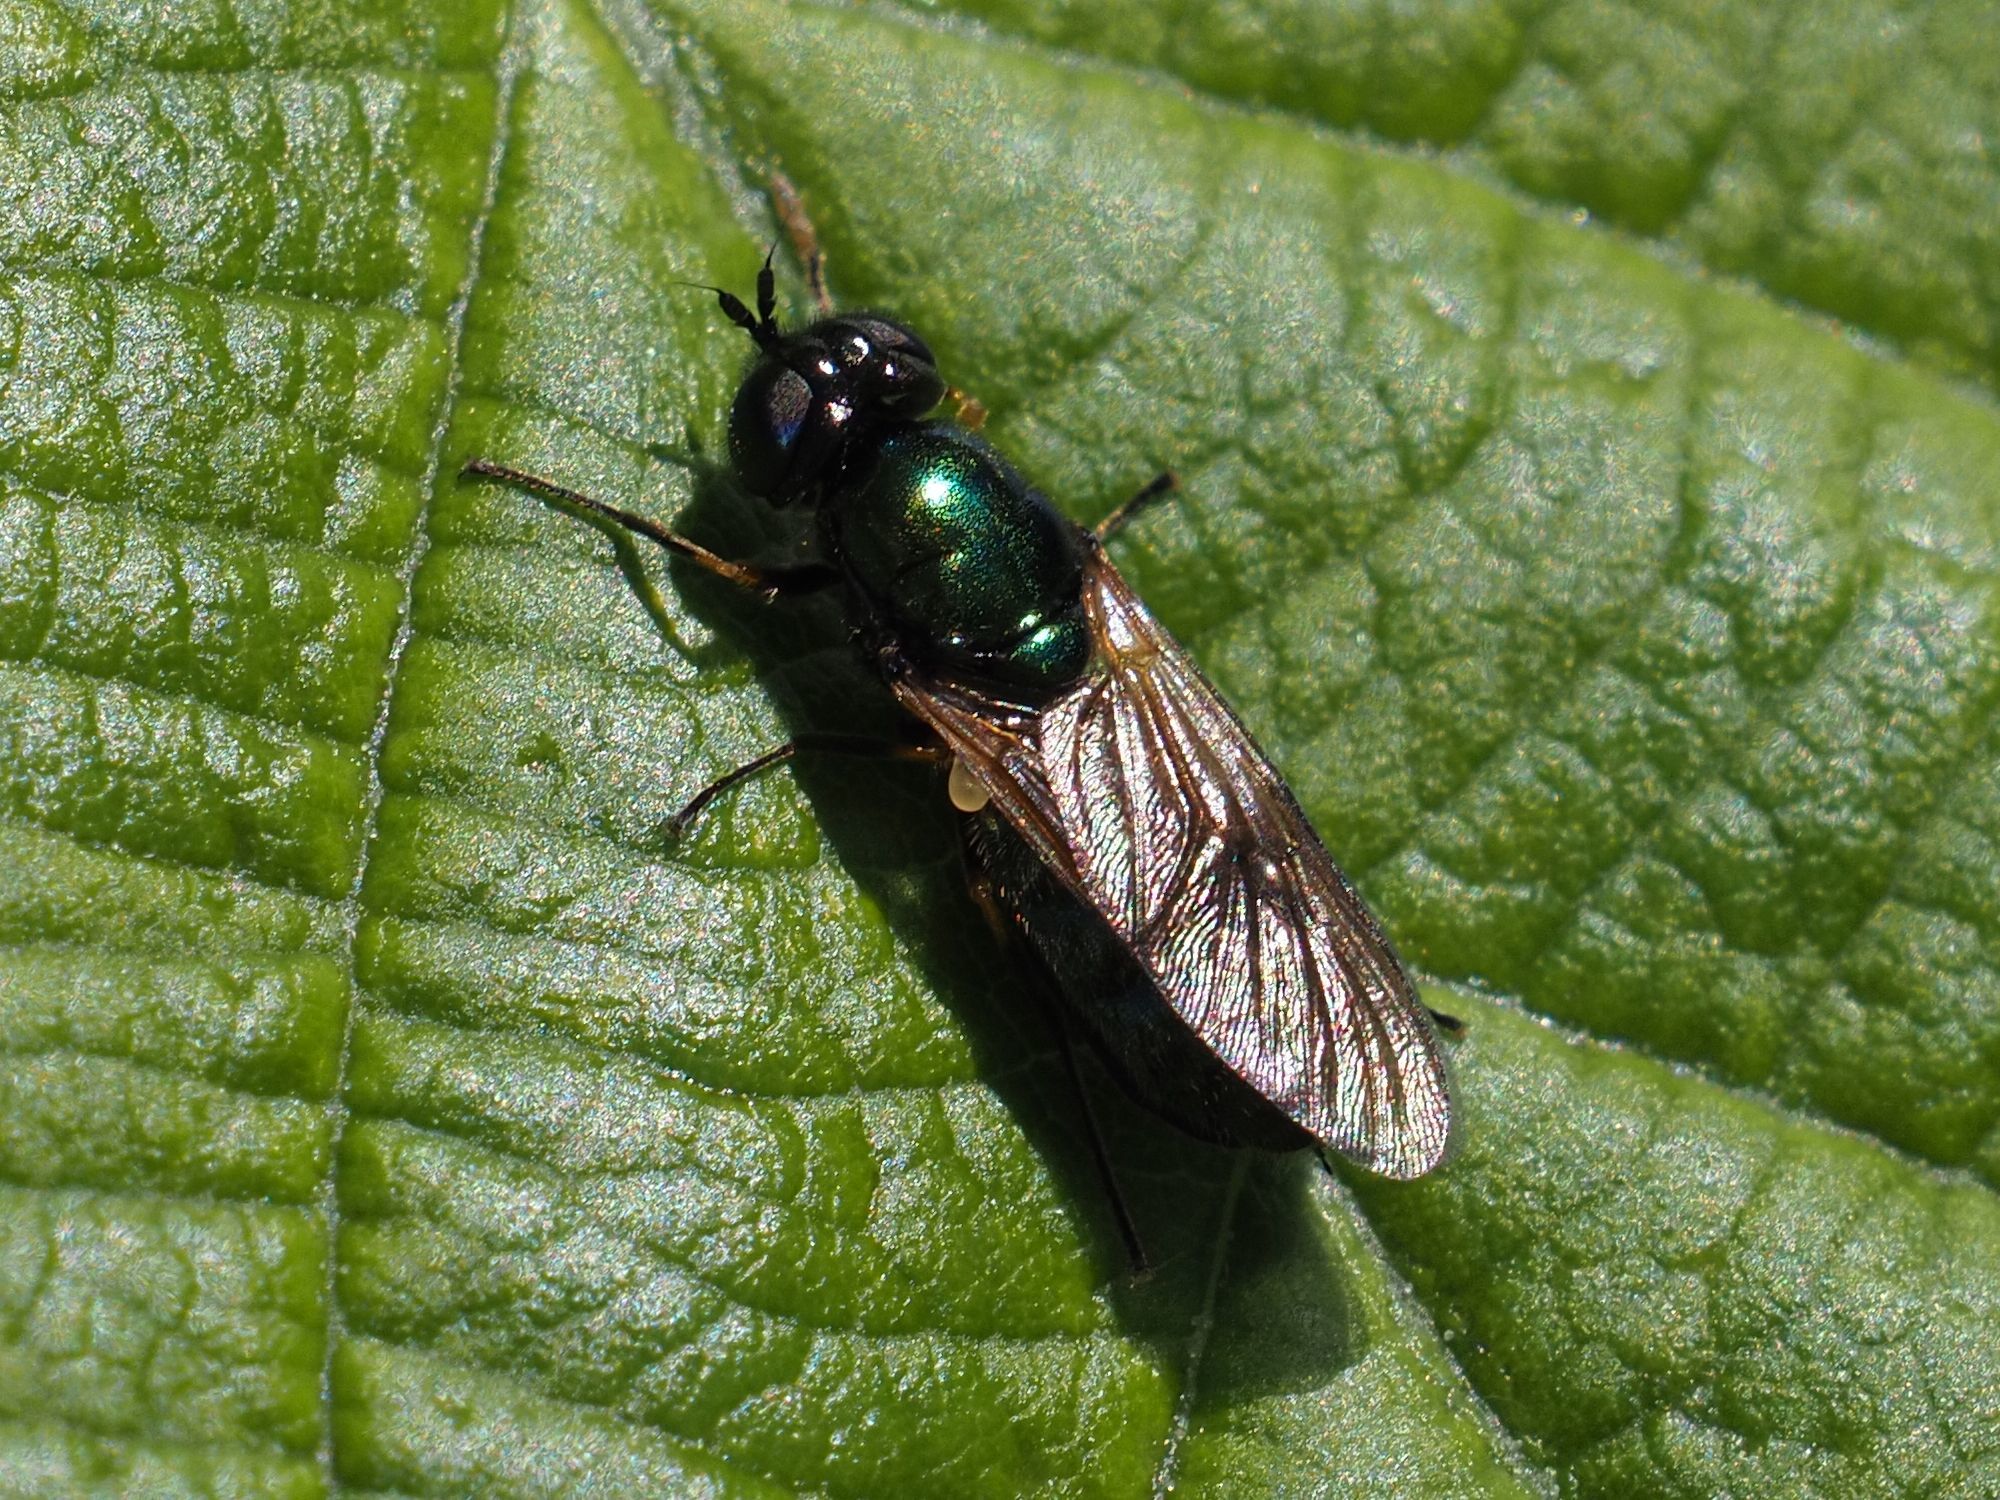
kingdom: Animalia
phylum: Arthropoda
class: Insecta
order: Diptera
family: Stratiomyidae
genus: Chloromyia
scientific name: Chloromyia formosa
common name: Soldier fly
